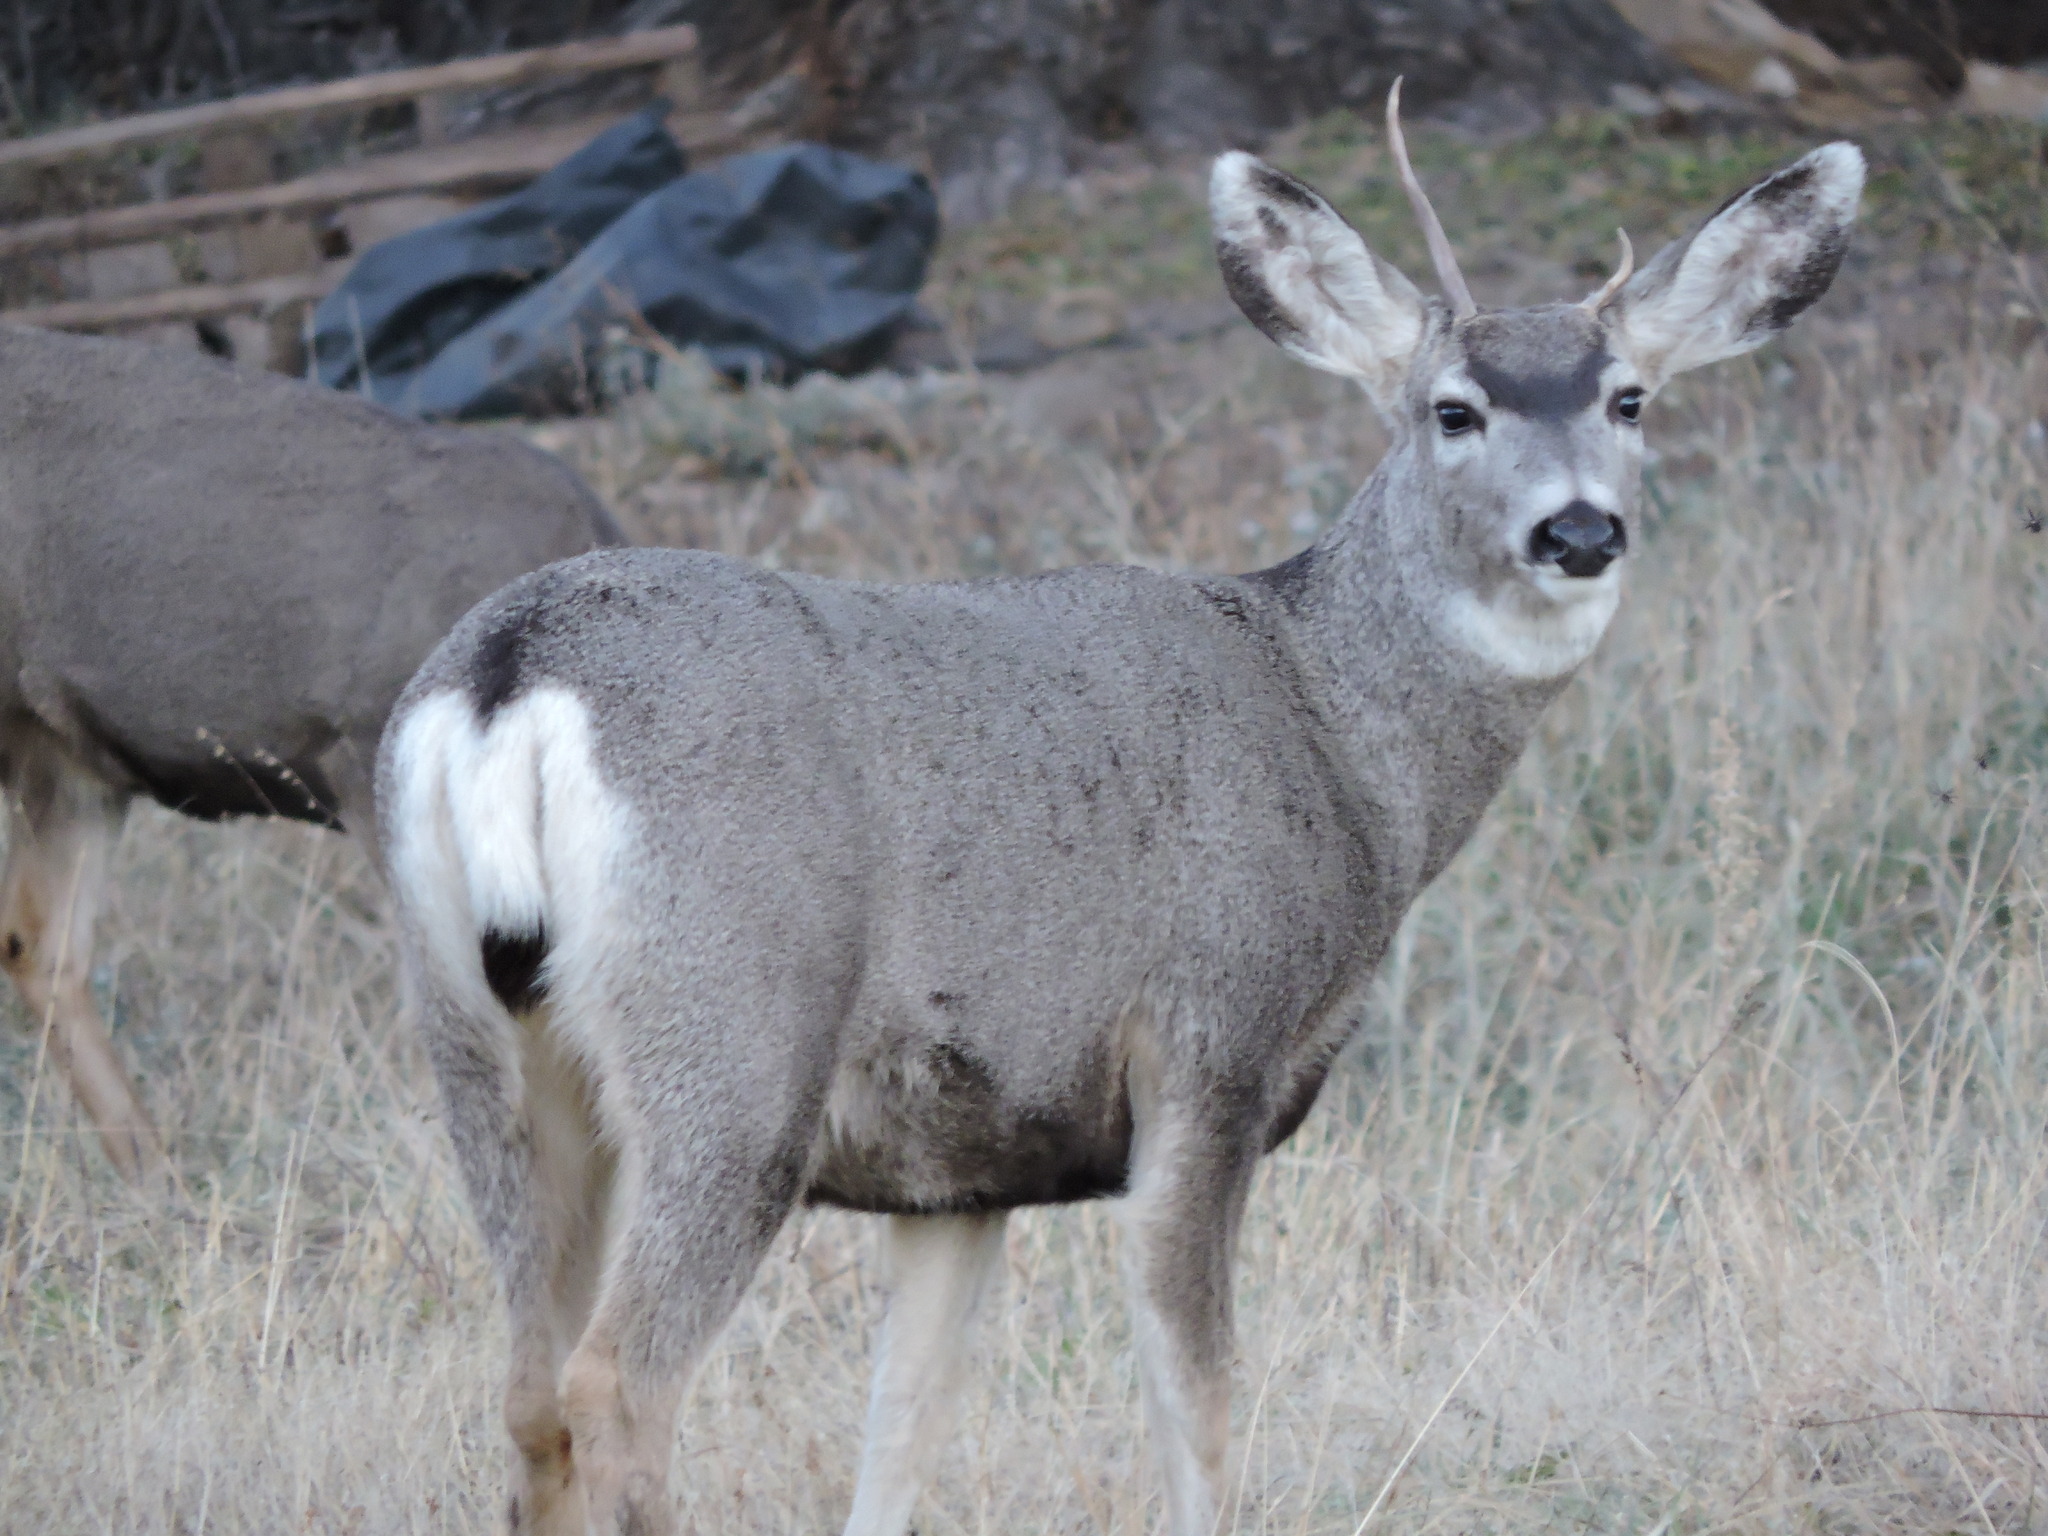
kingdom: Animalia
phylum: Chordata
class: Mammalia
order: Artiodactyla
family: Cervidae
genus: Odocoileus
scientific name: Odocoileus hemionus
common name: Mule deer
